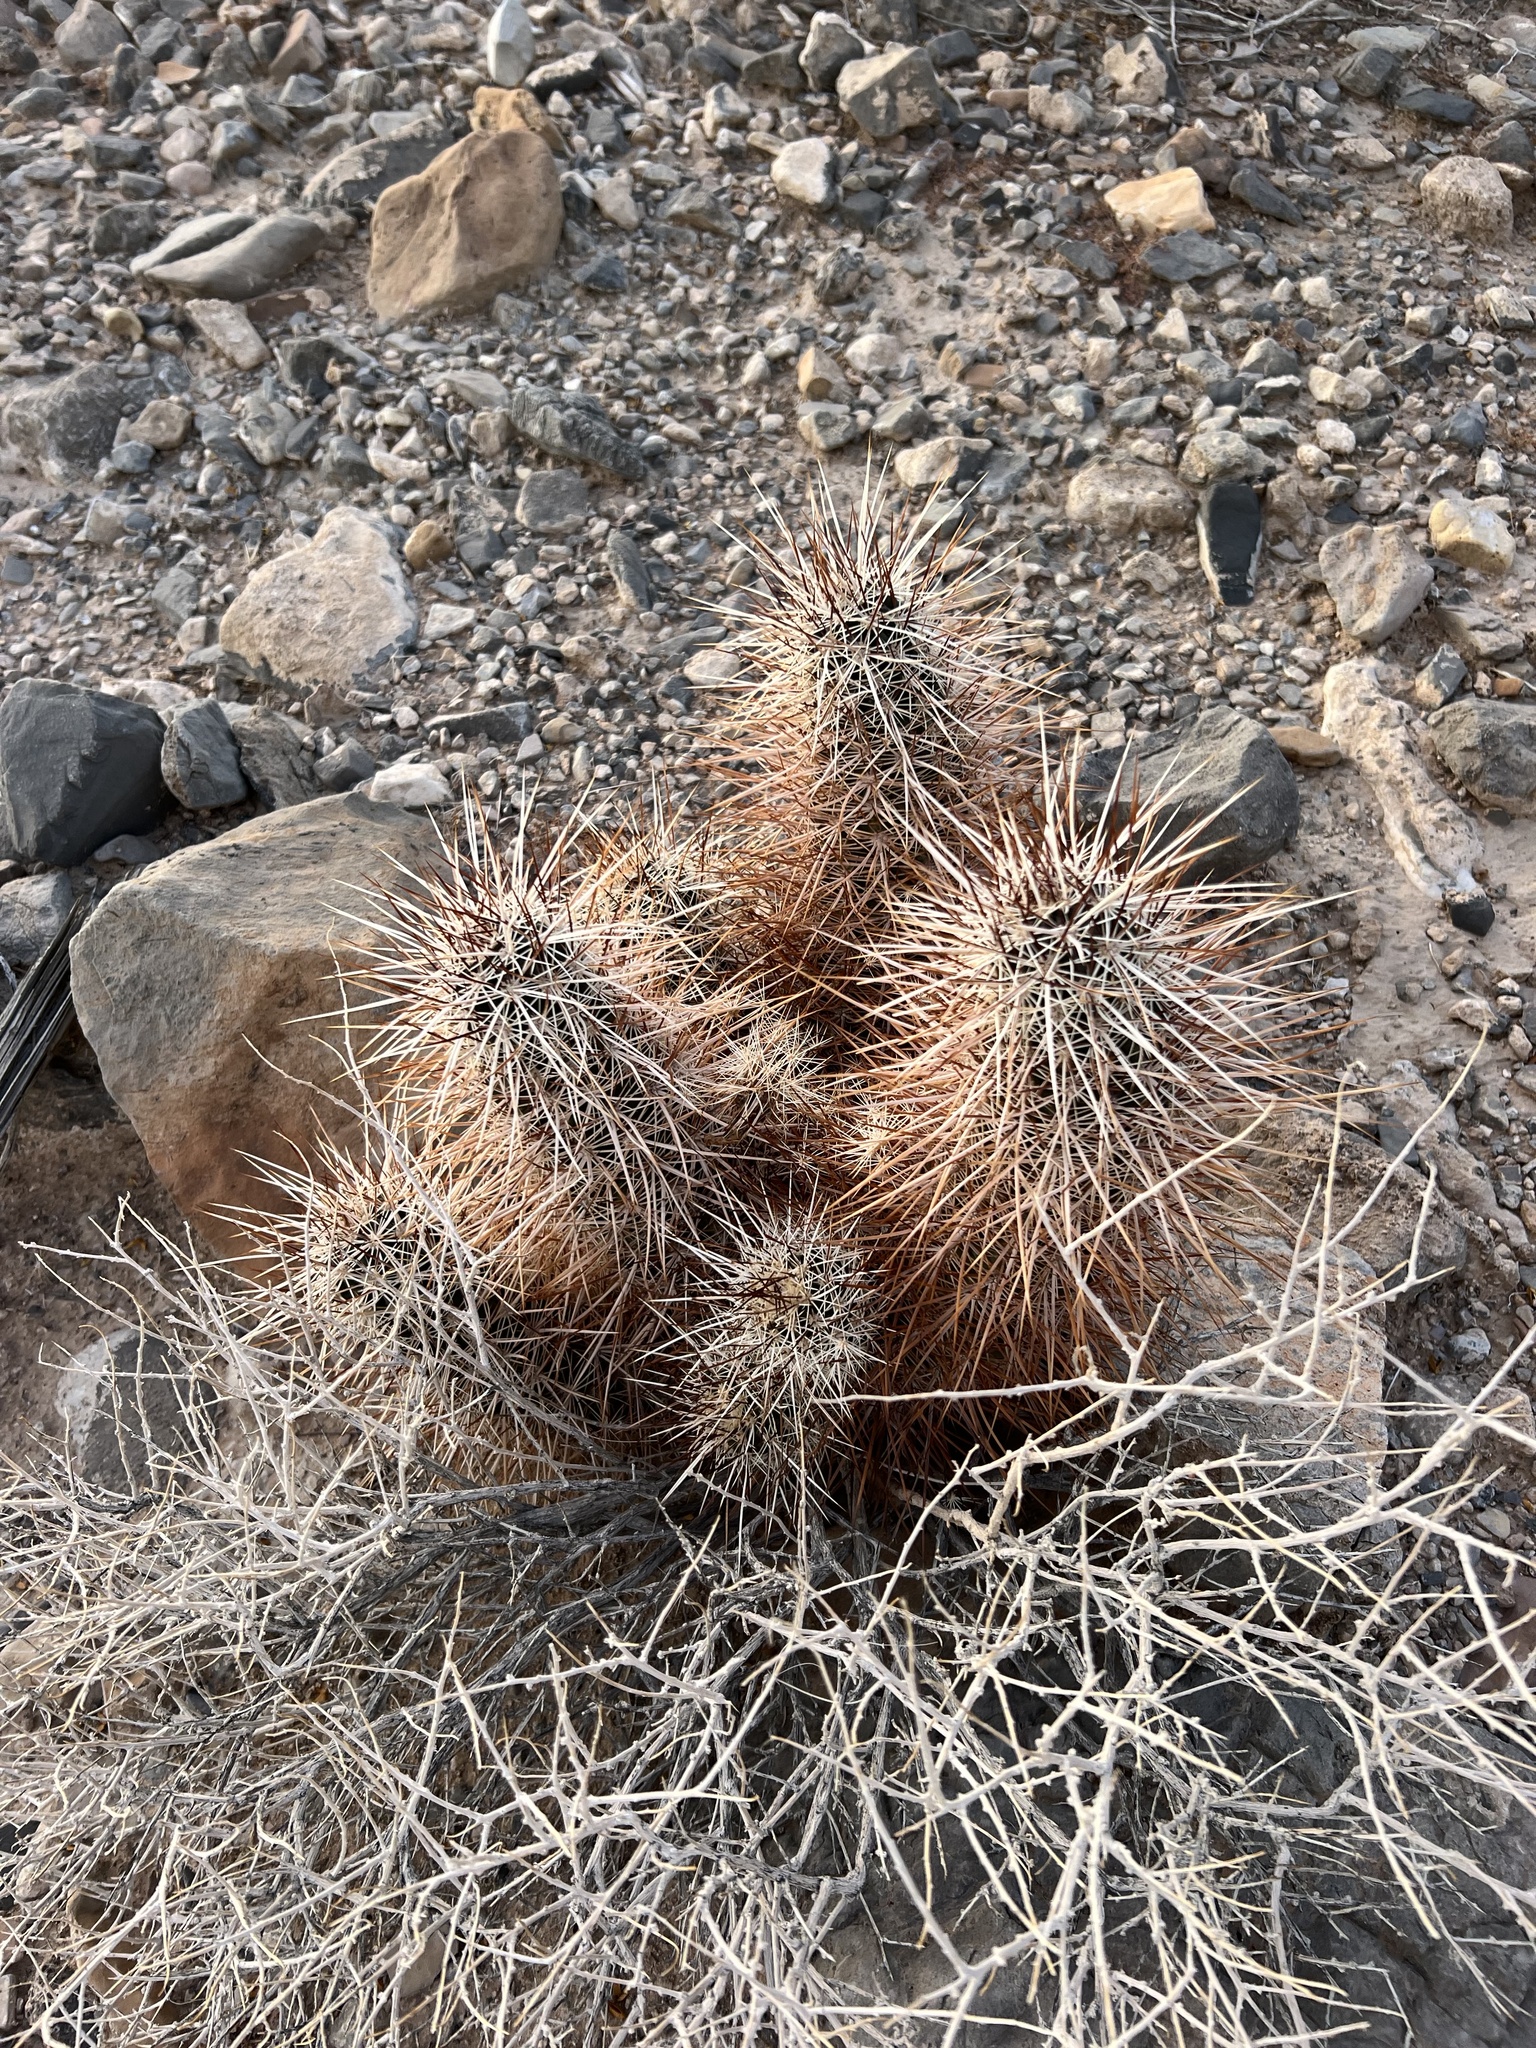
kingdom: Plantae
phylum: Tracheophyta
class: Magnoliopsida
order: Caryophyllales
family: Cactaceae
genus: Echinocereus
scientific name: Echinocereus engelmannii
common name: Engelmann's hedgehog cactus
